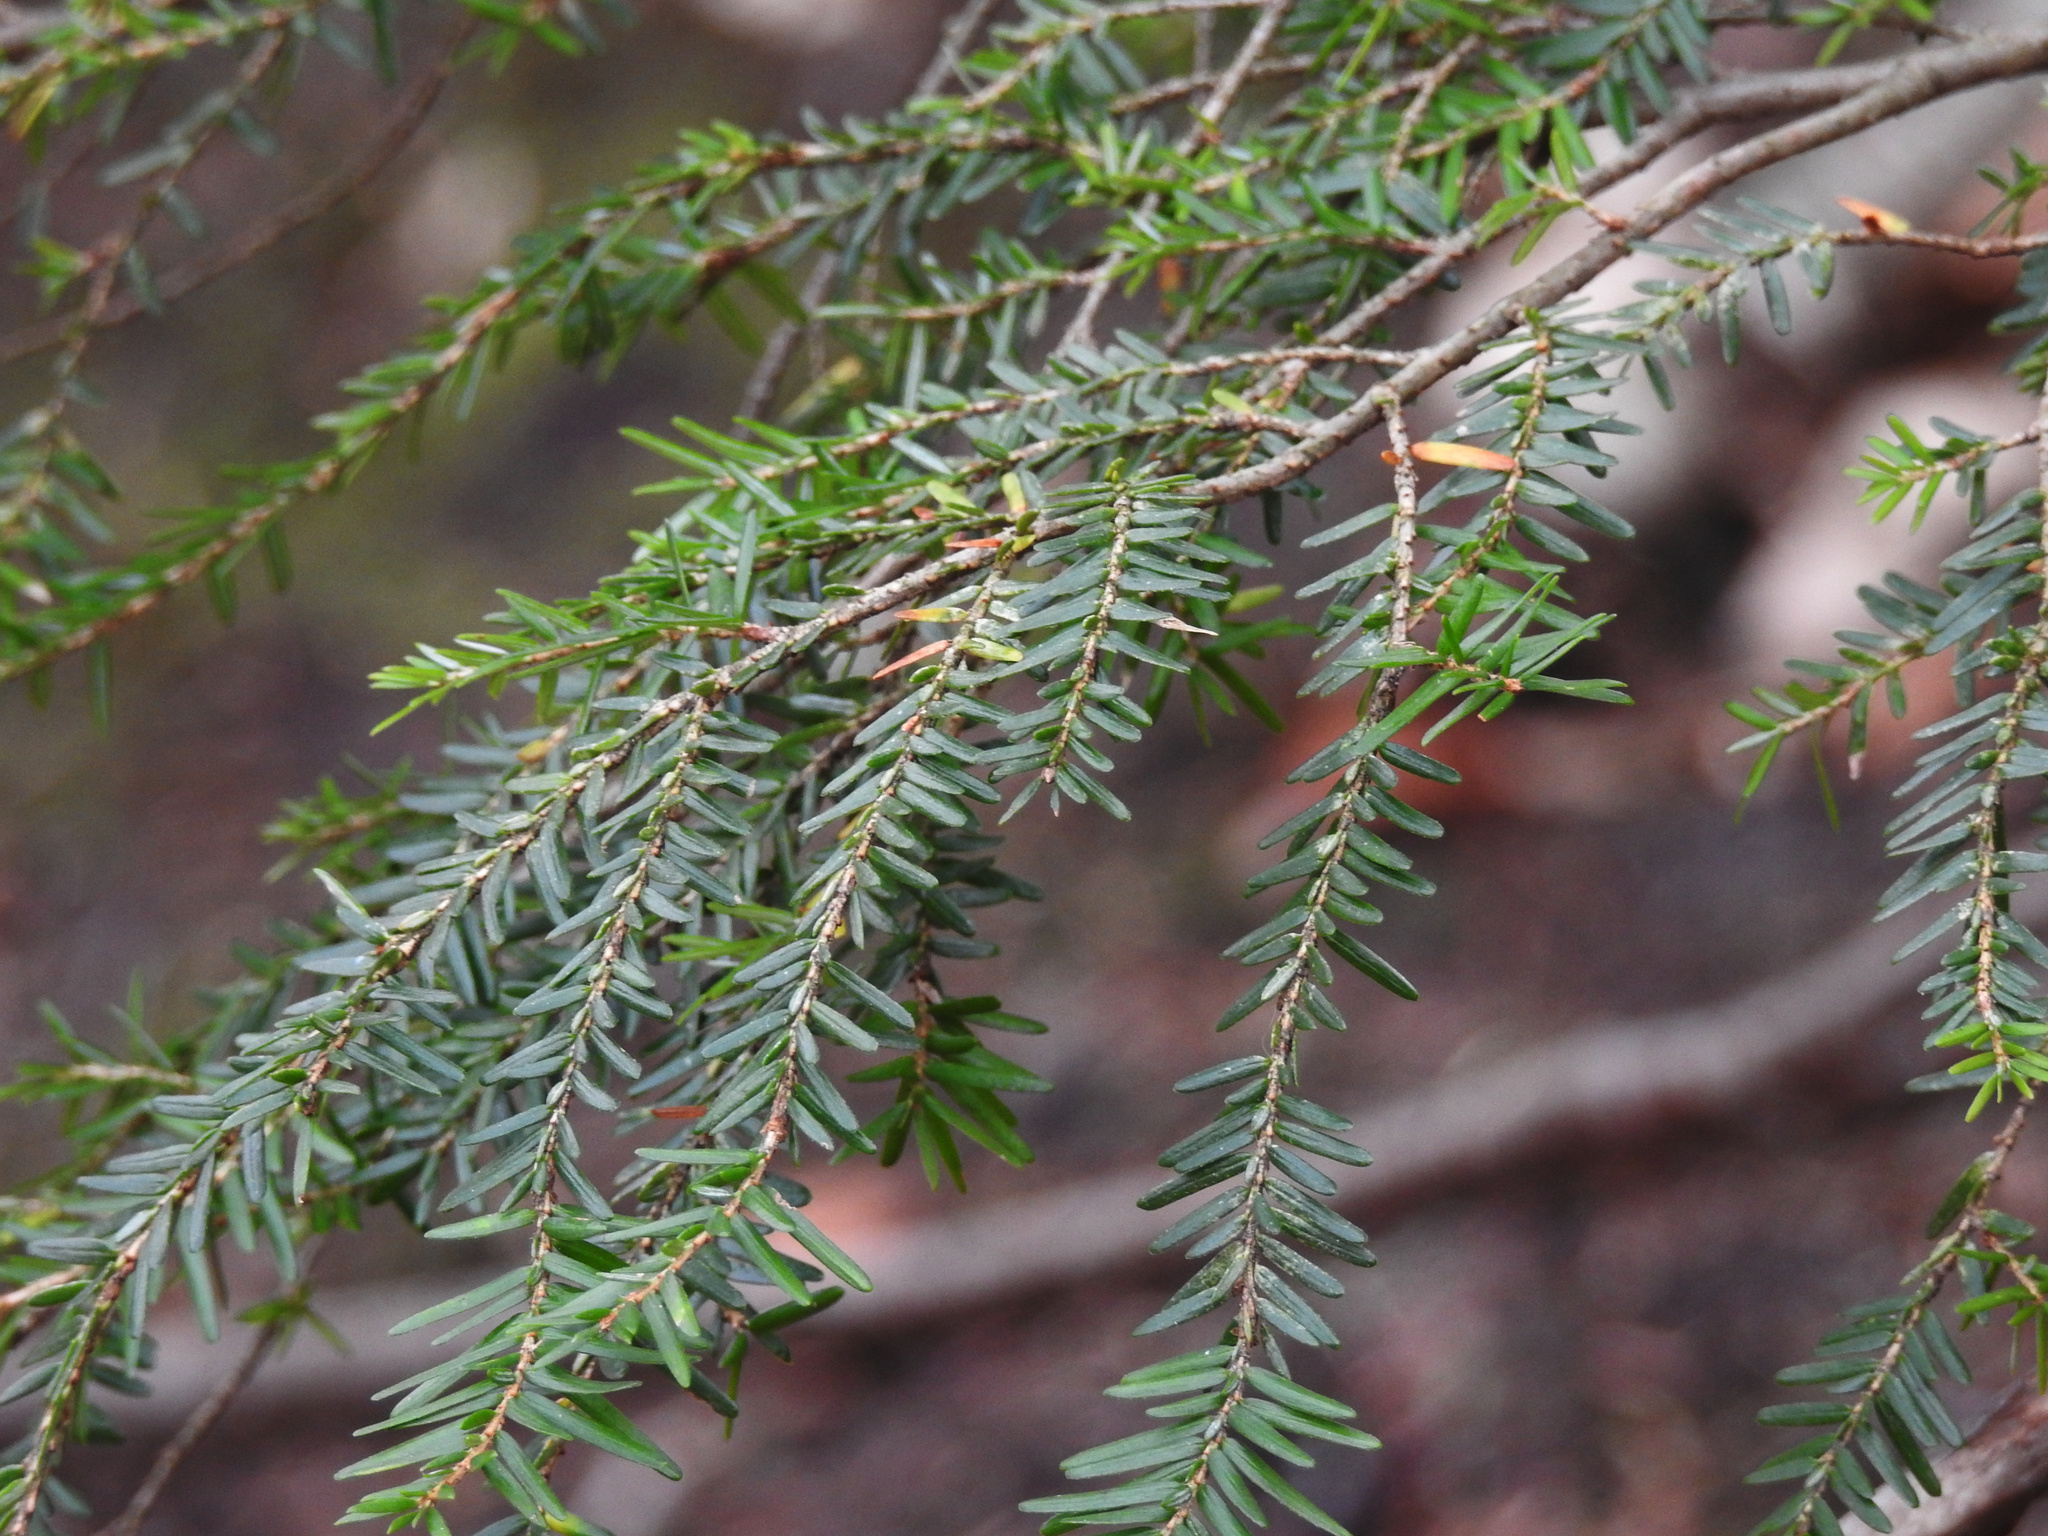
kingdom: Plantae
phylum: Tracheophyta
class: Pinopsida
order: Pinales
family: Pinaceae
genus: Tsuga
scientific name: Tsuga canadensis
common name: Eastern hemlock
